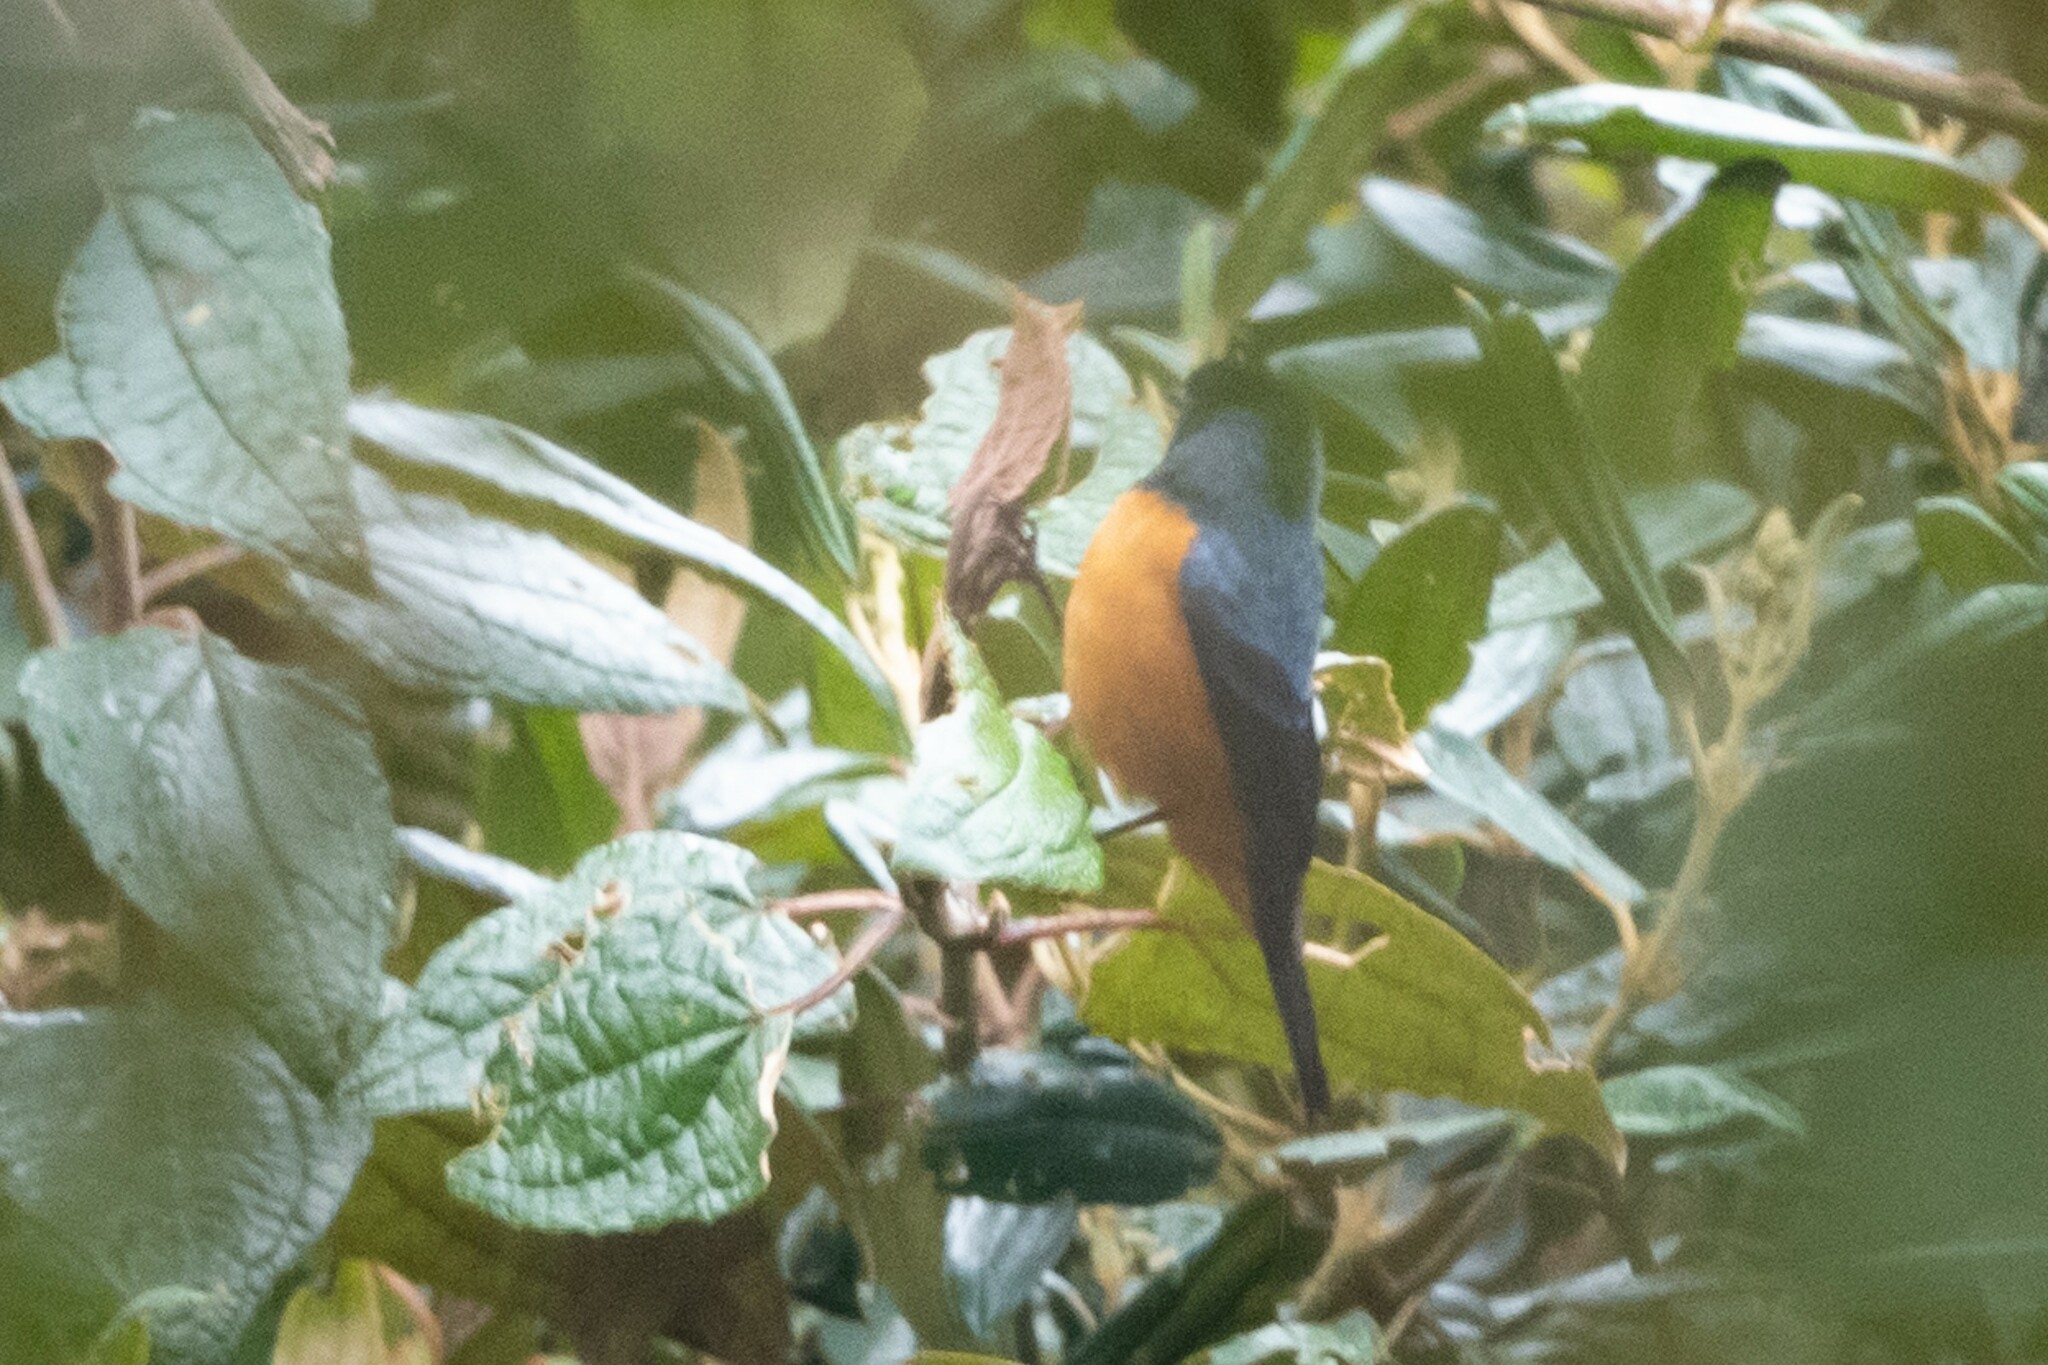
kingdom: Animalia
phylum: Chordata
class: Aves
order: Passeriformes
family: Thraupidae
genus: Conirostrum
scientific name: Conirostrum sitticolor
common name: Blue-backed conebill
